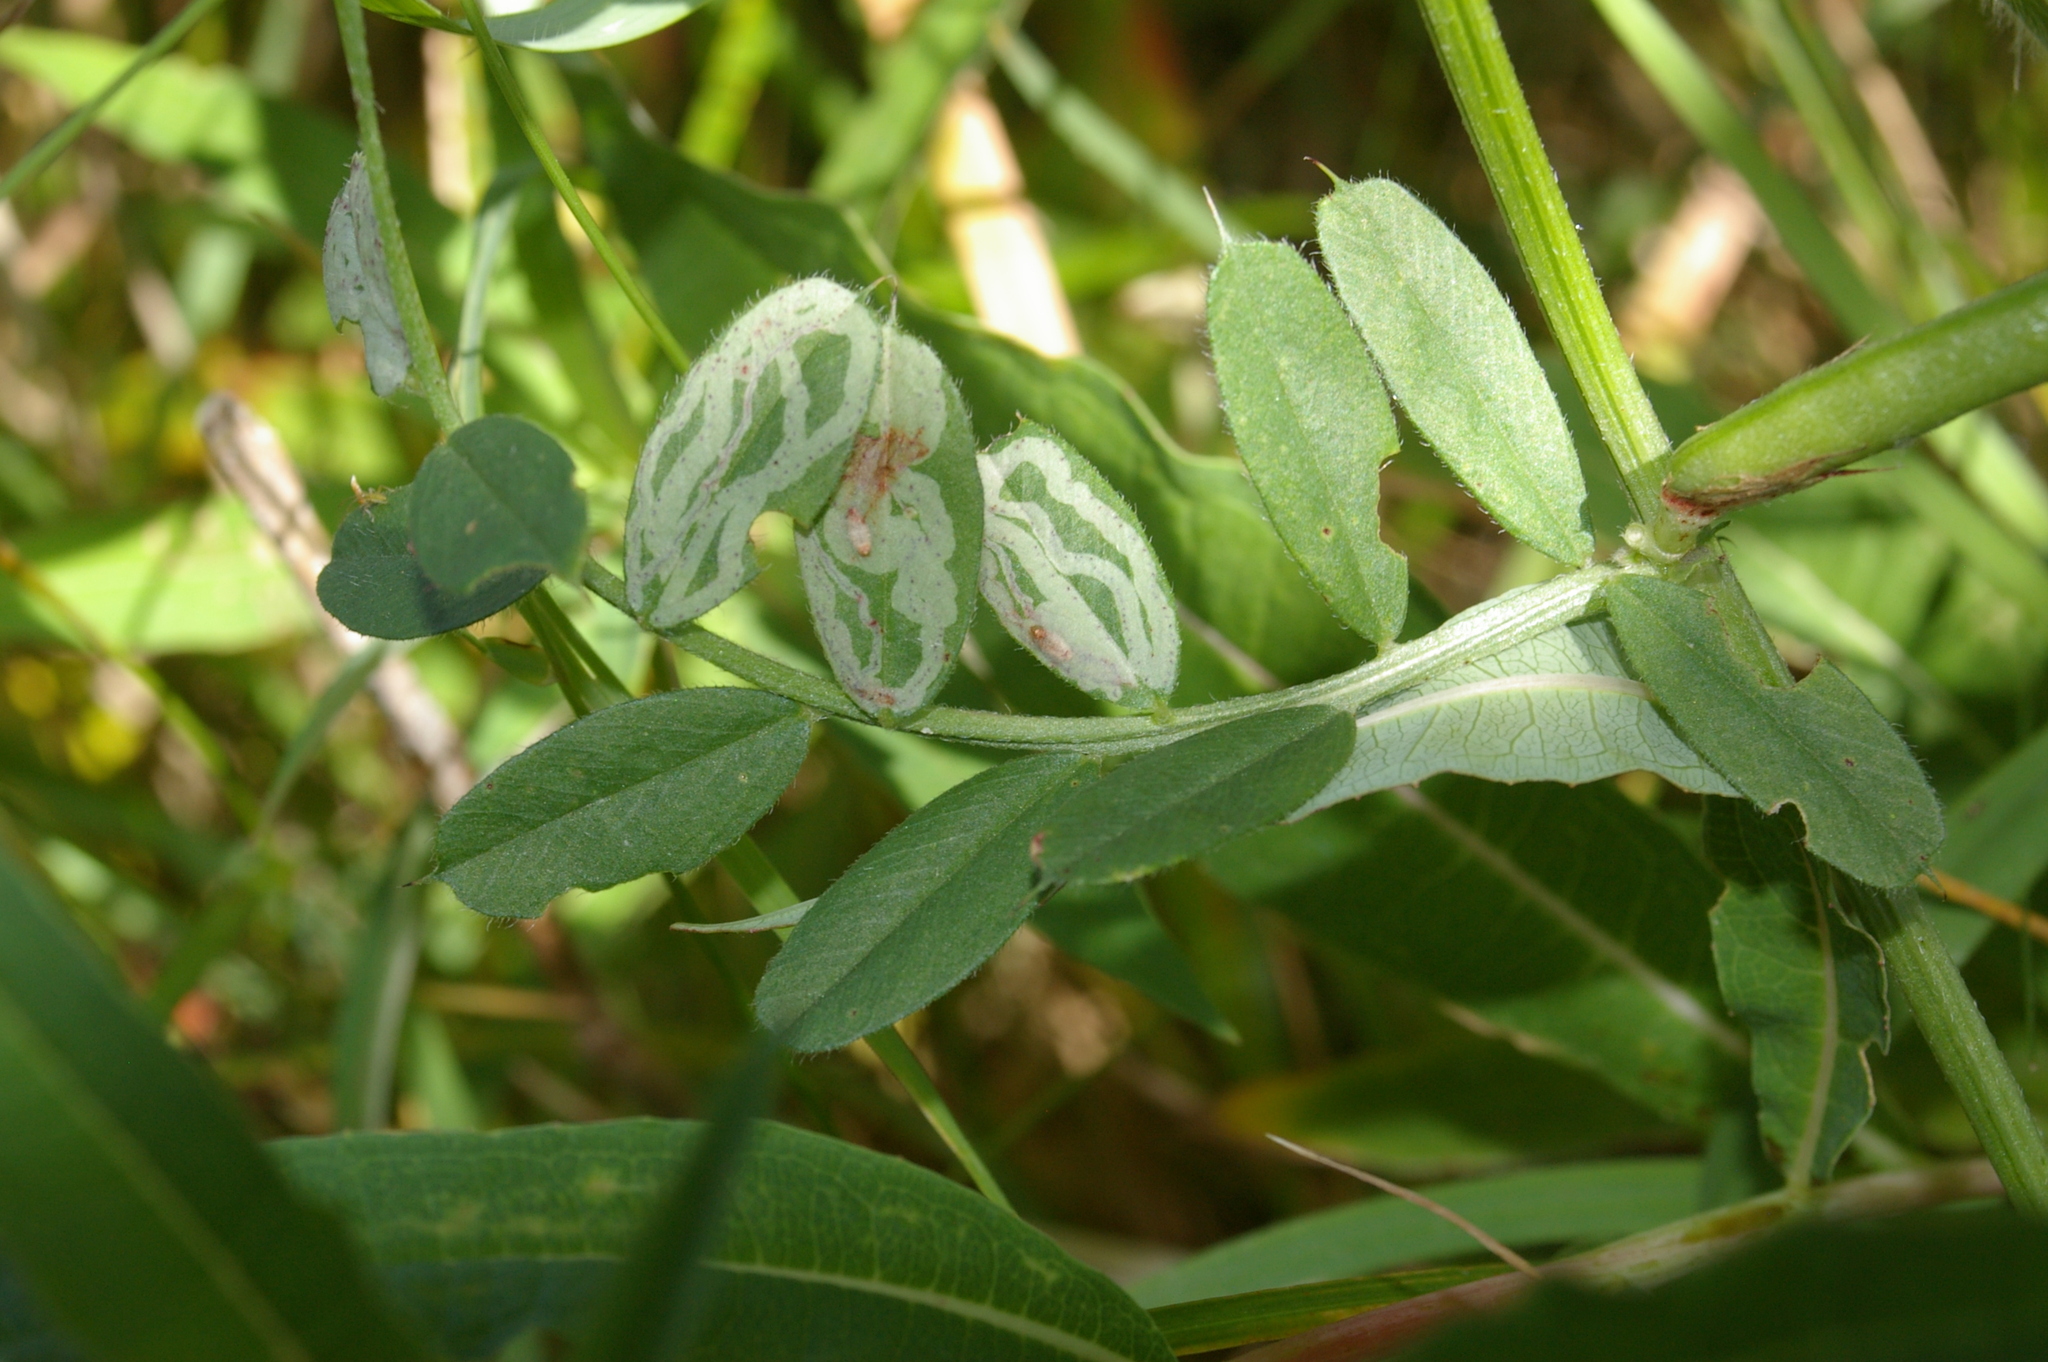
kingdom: Animalia
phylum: Arthropoda
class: Insecta
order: Diptera
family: Agromyzidae
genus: Phytomyza
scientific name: Phytomyza horticola
